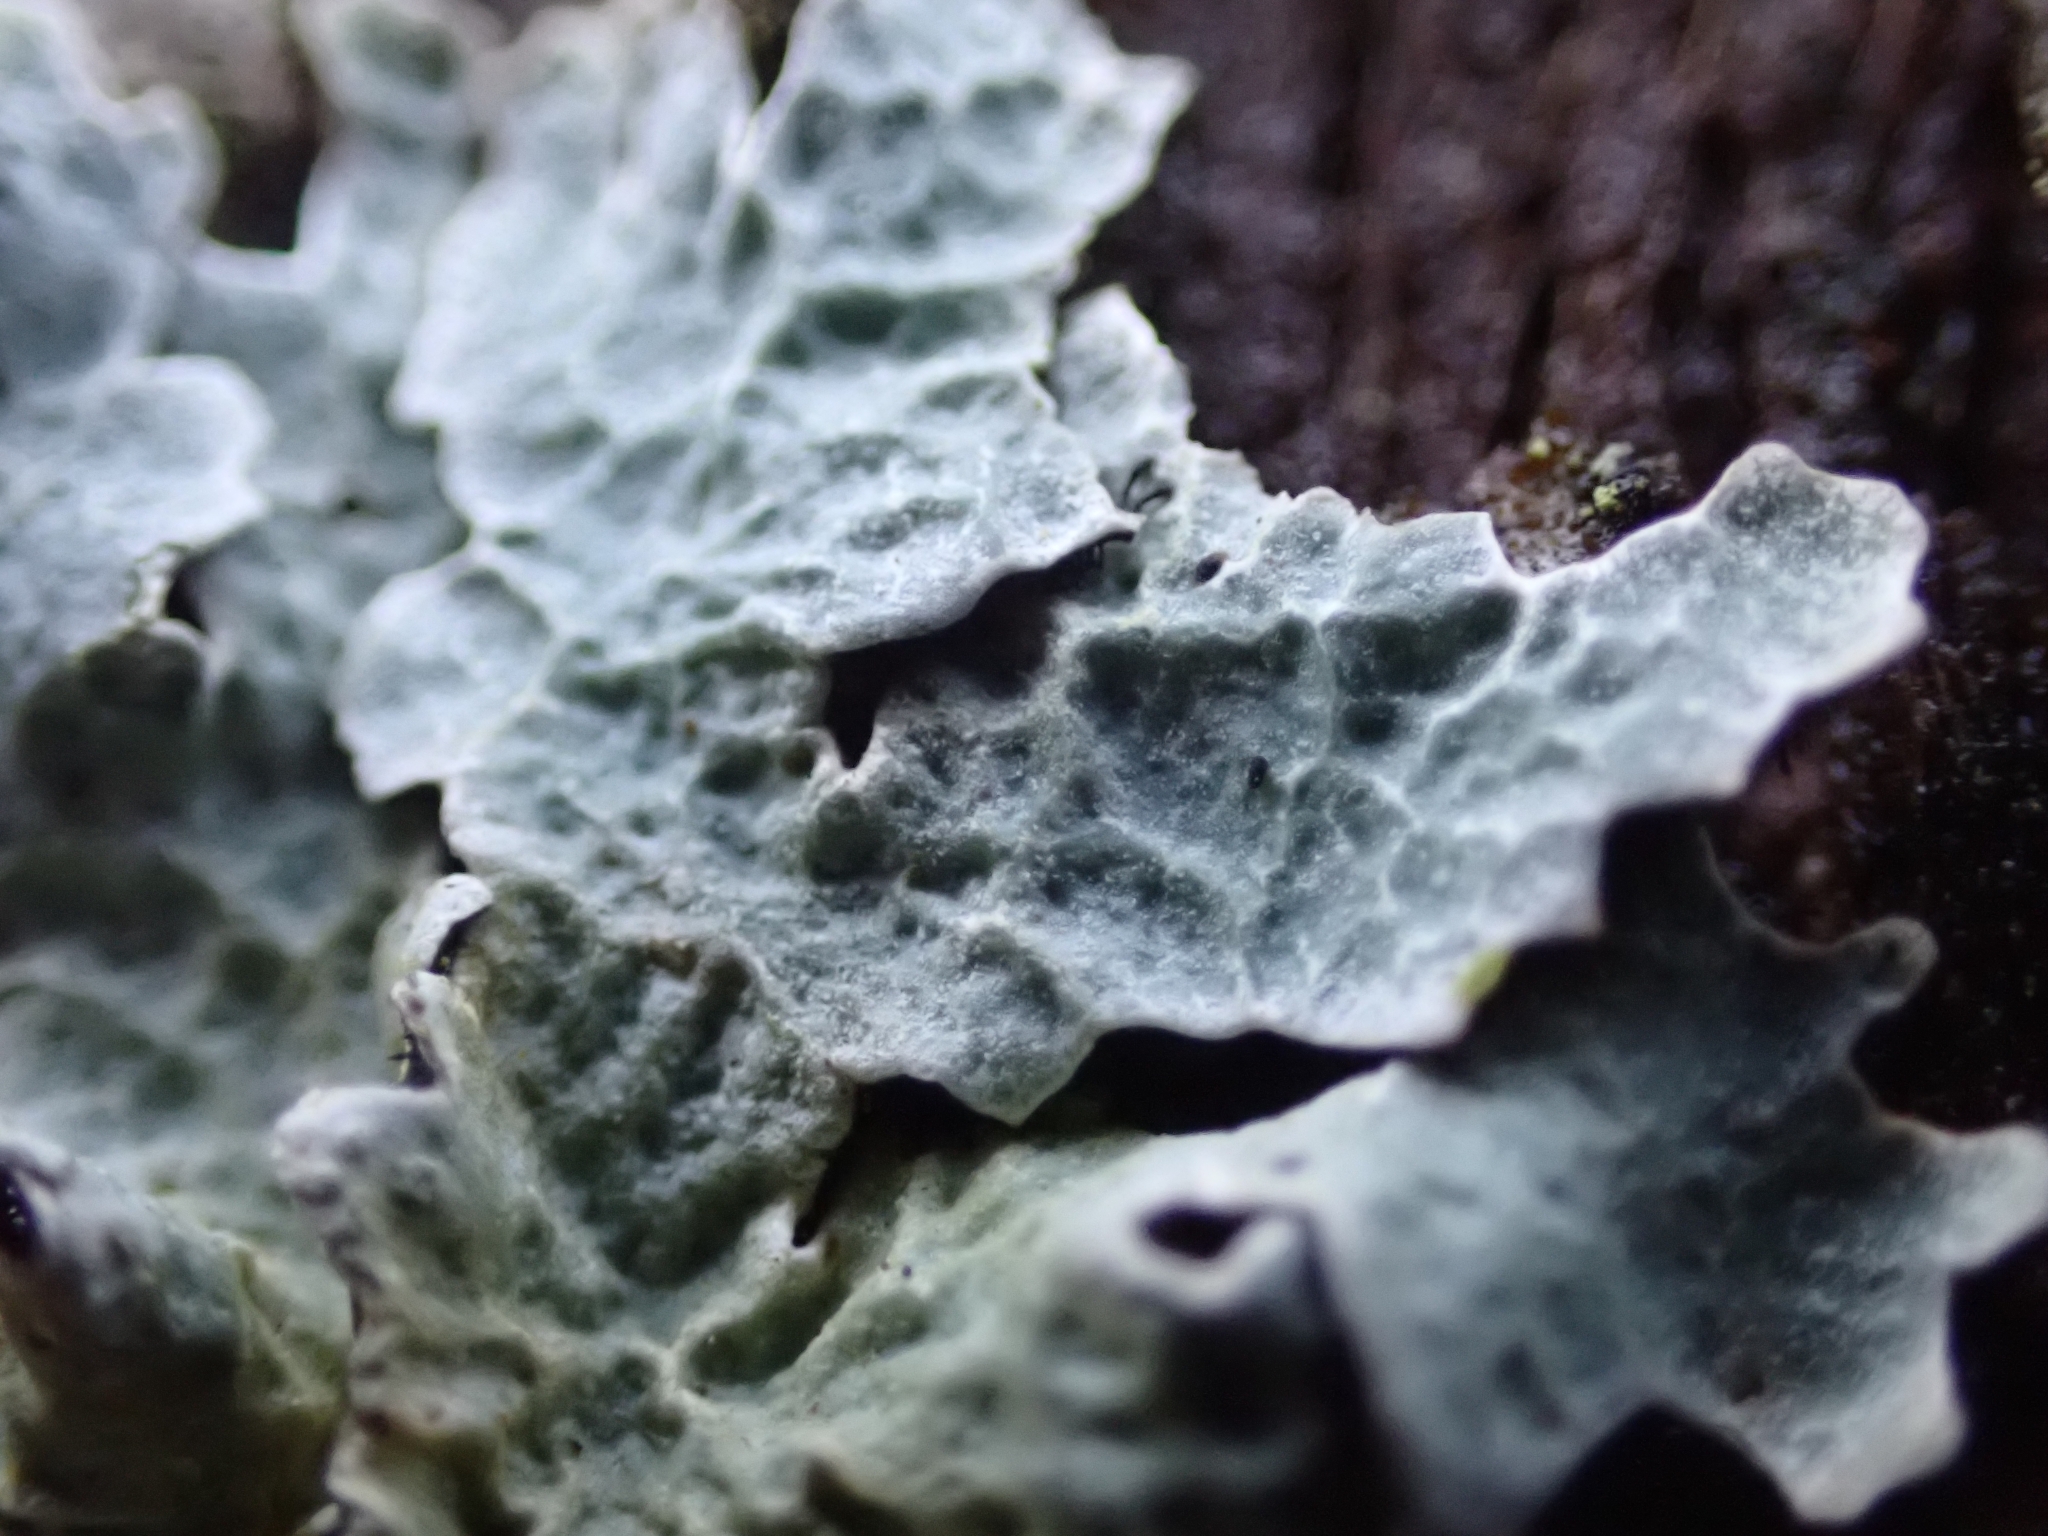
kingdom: Fungi
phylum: Ascomycota
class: Lecanoromycetes
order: Lecanorales
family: Parmeliaceae
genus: Parmelia
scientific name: Parmelia sulcata
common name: Netted shield lichen
